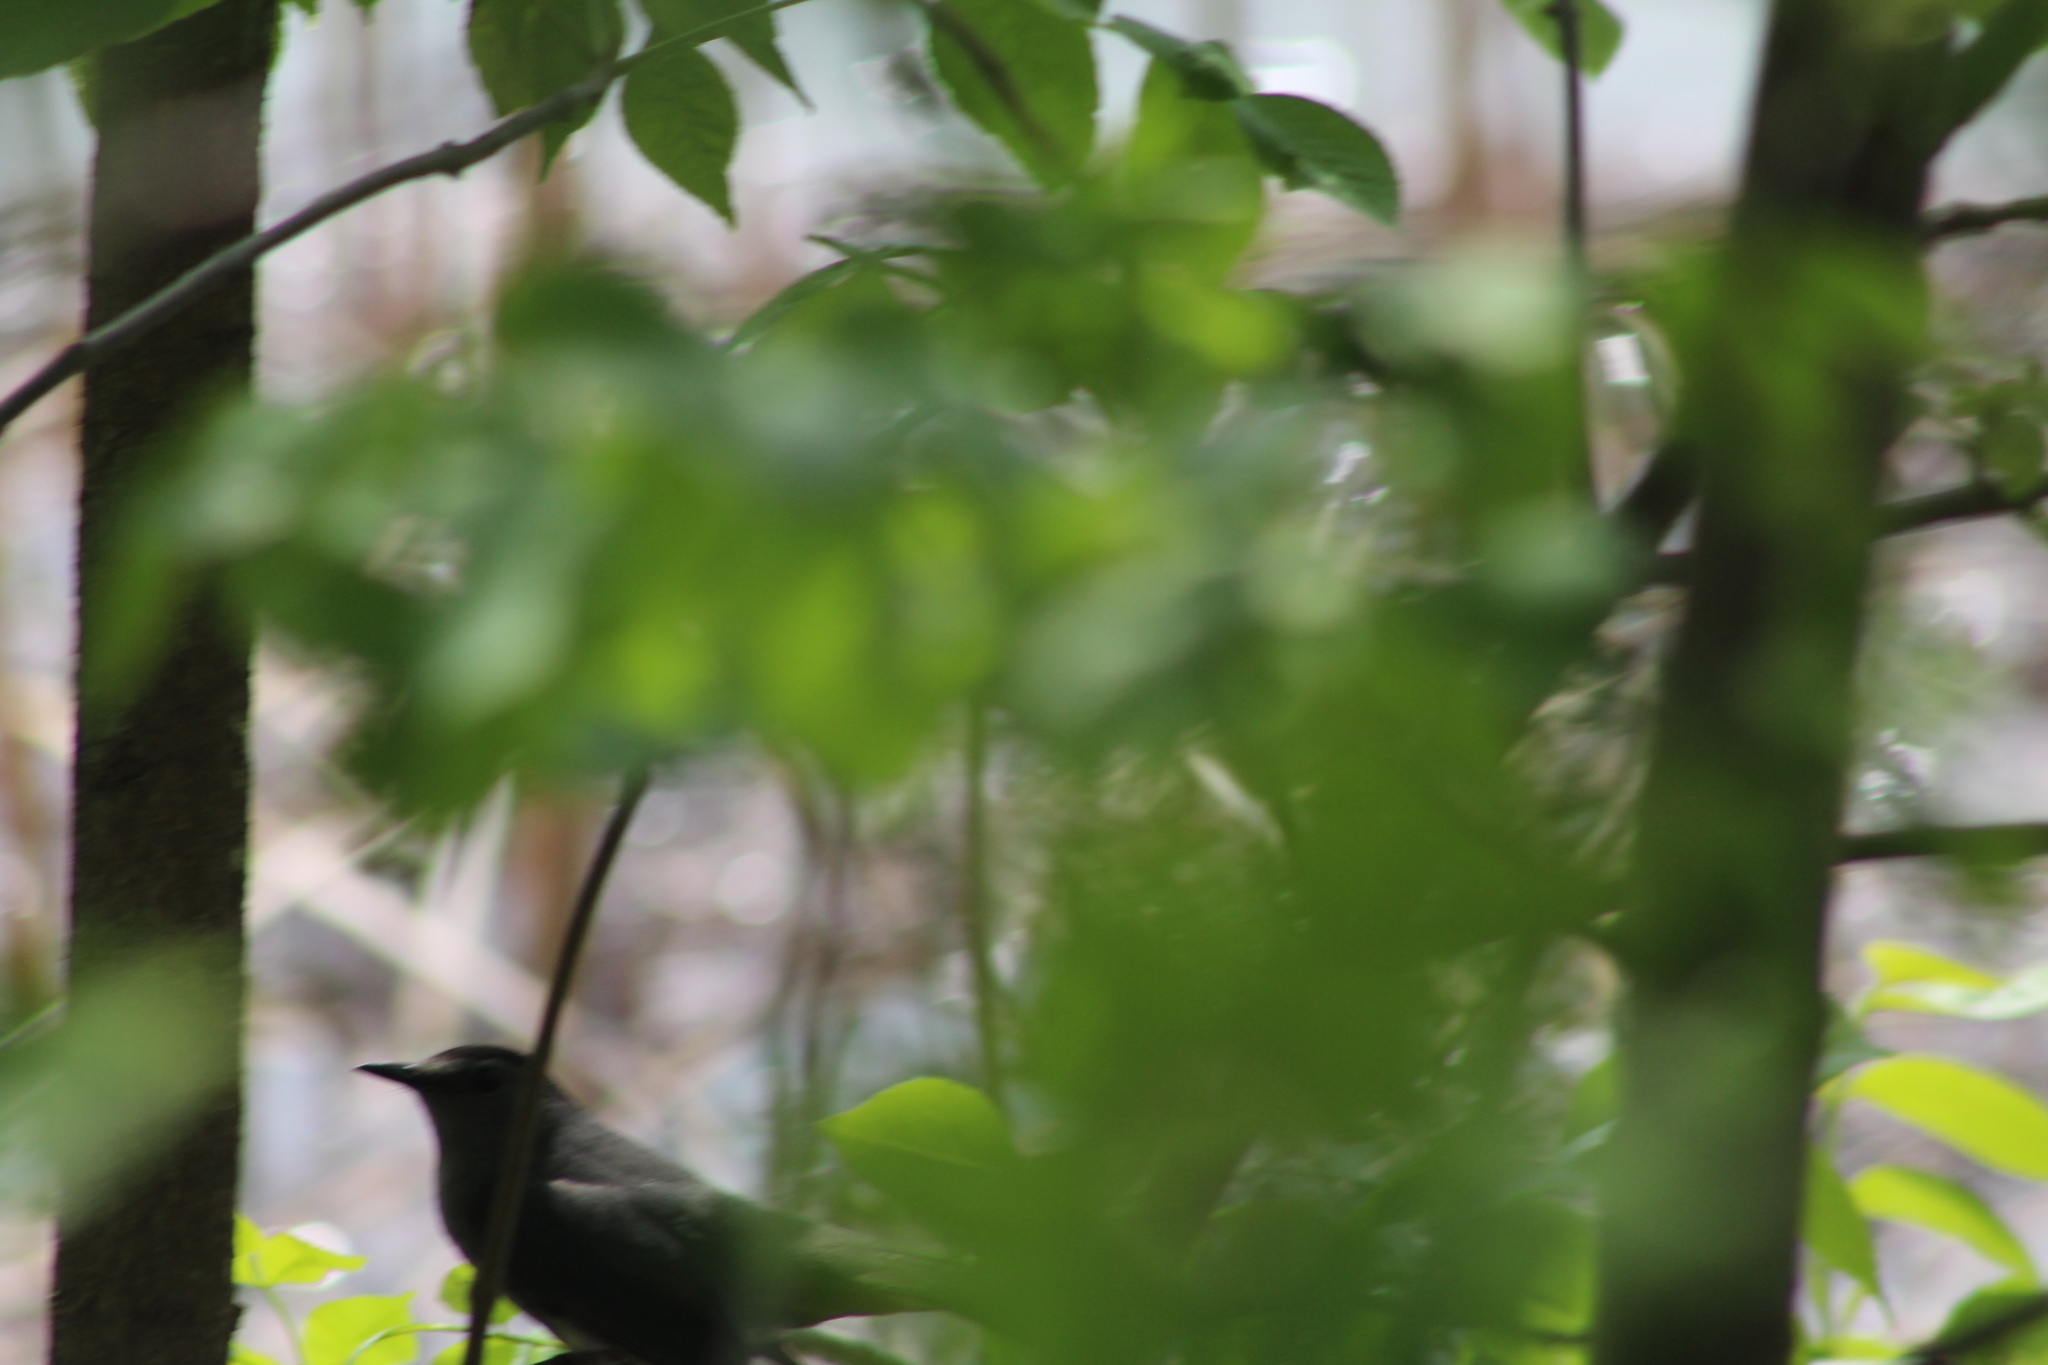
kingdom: Animalia
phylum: Chordata
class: Aves
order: Passeriformes
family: Mimidae
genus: Dumetella
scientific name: Dumetella carolinensis
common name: Gray catbird
